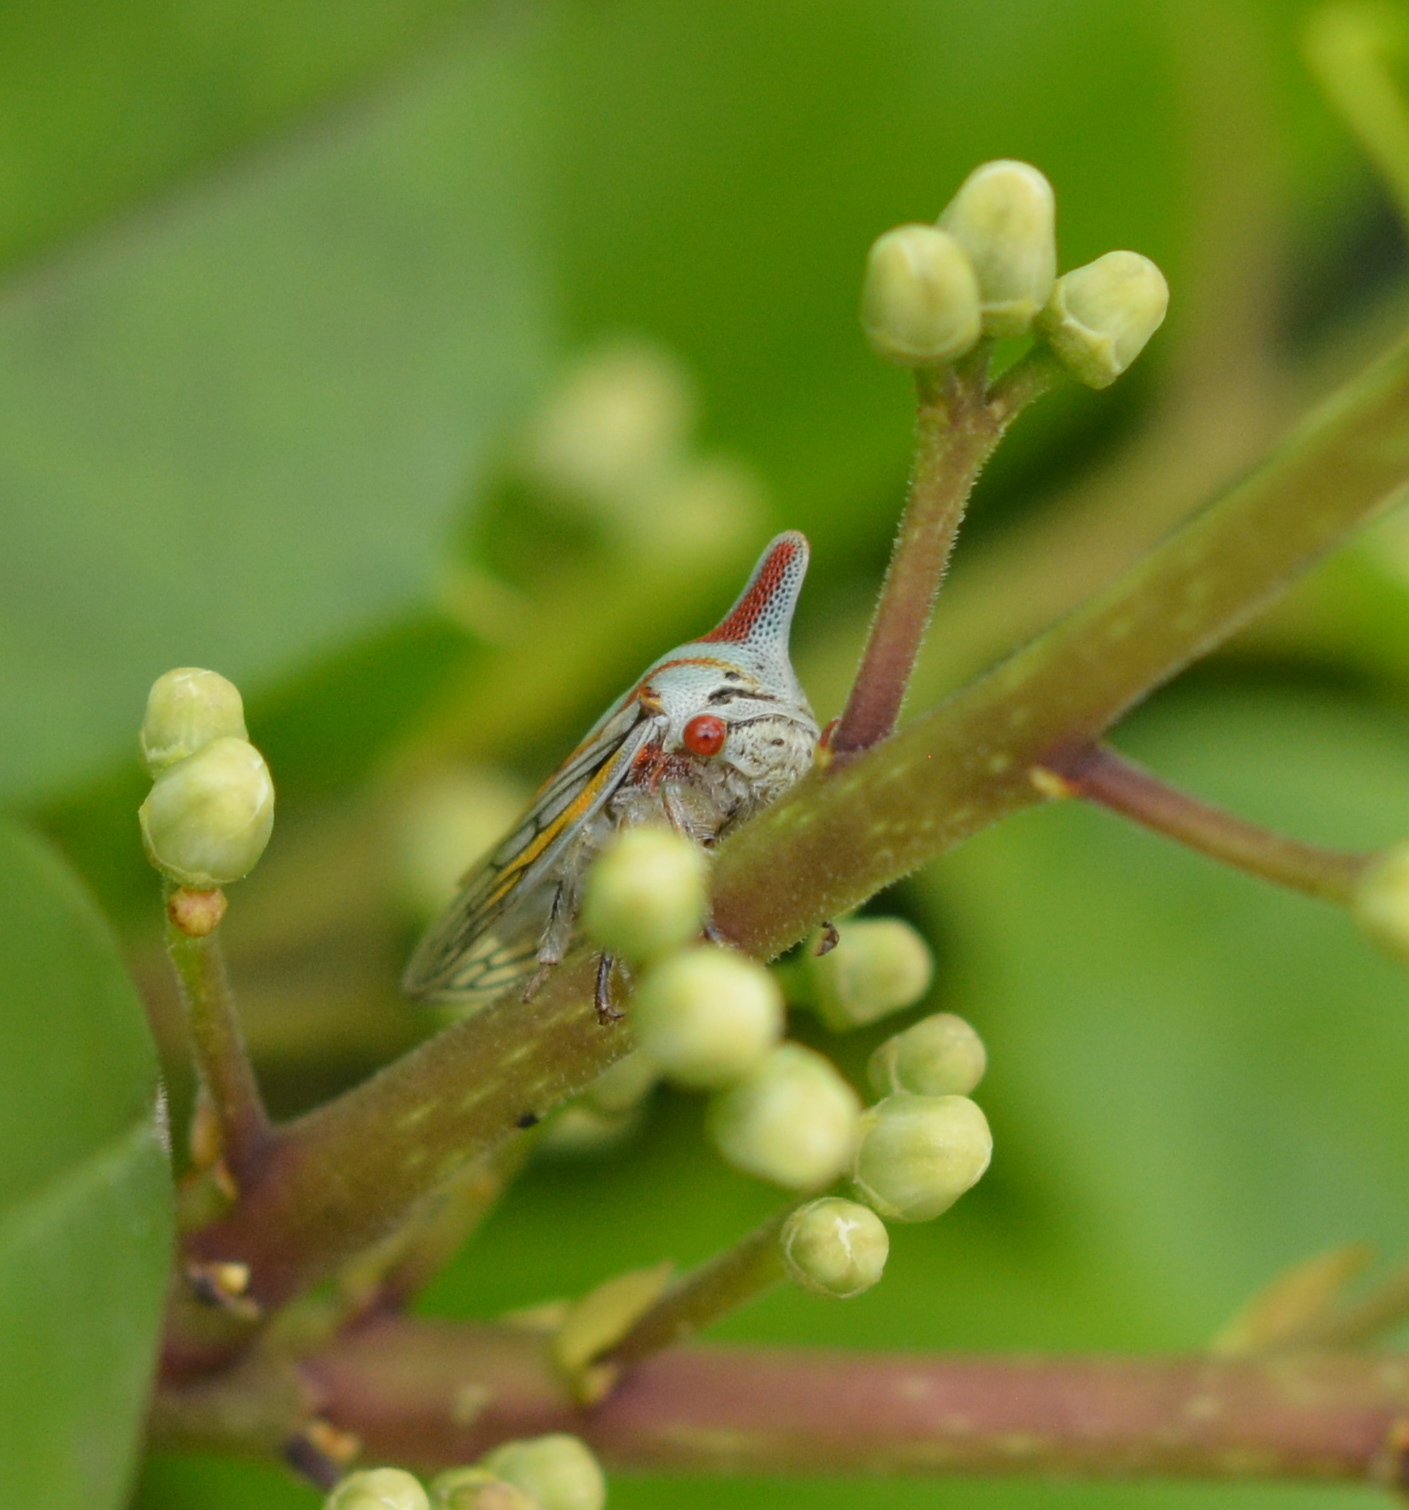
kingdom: Animalia
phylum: Arthropoda
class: Insecta
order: Hemiptera
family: Membracidae
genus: Platycotis
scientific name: Platycotis vittatus
